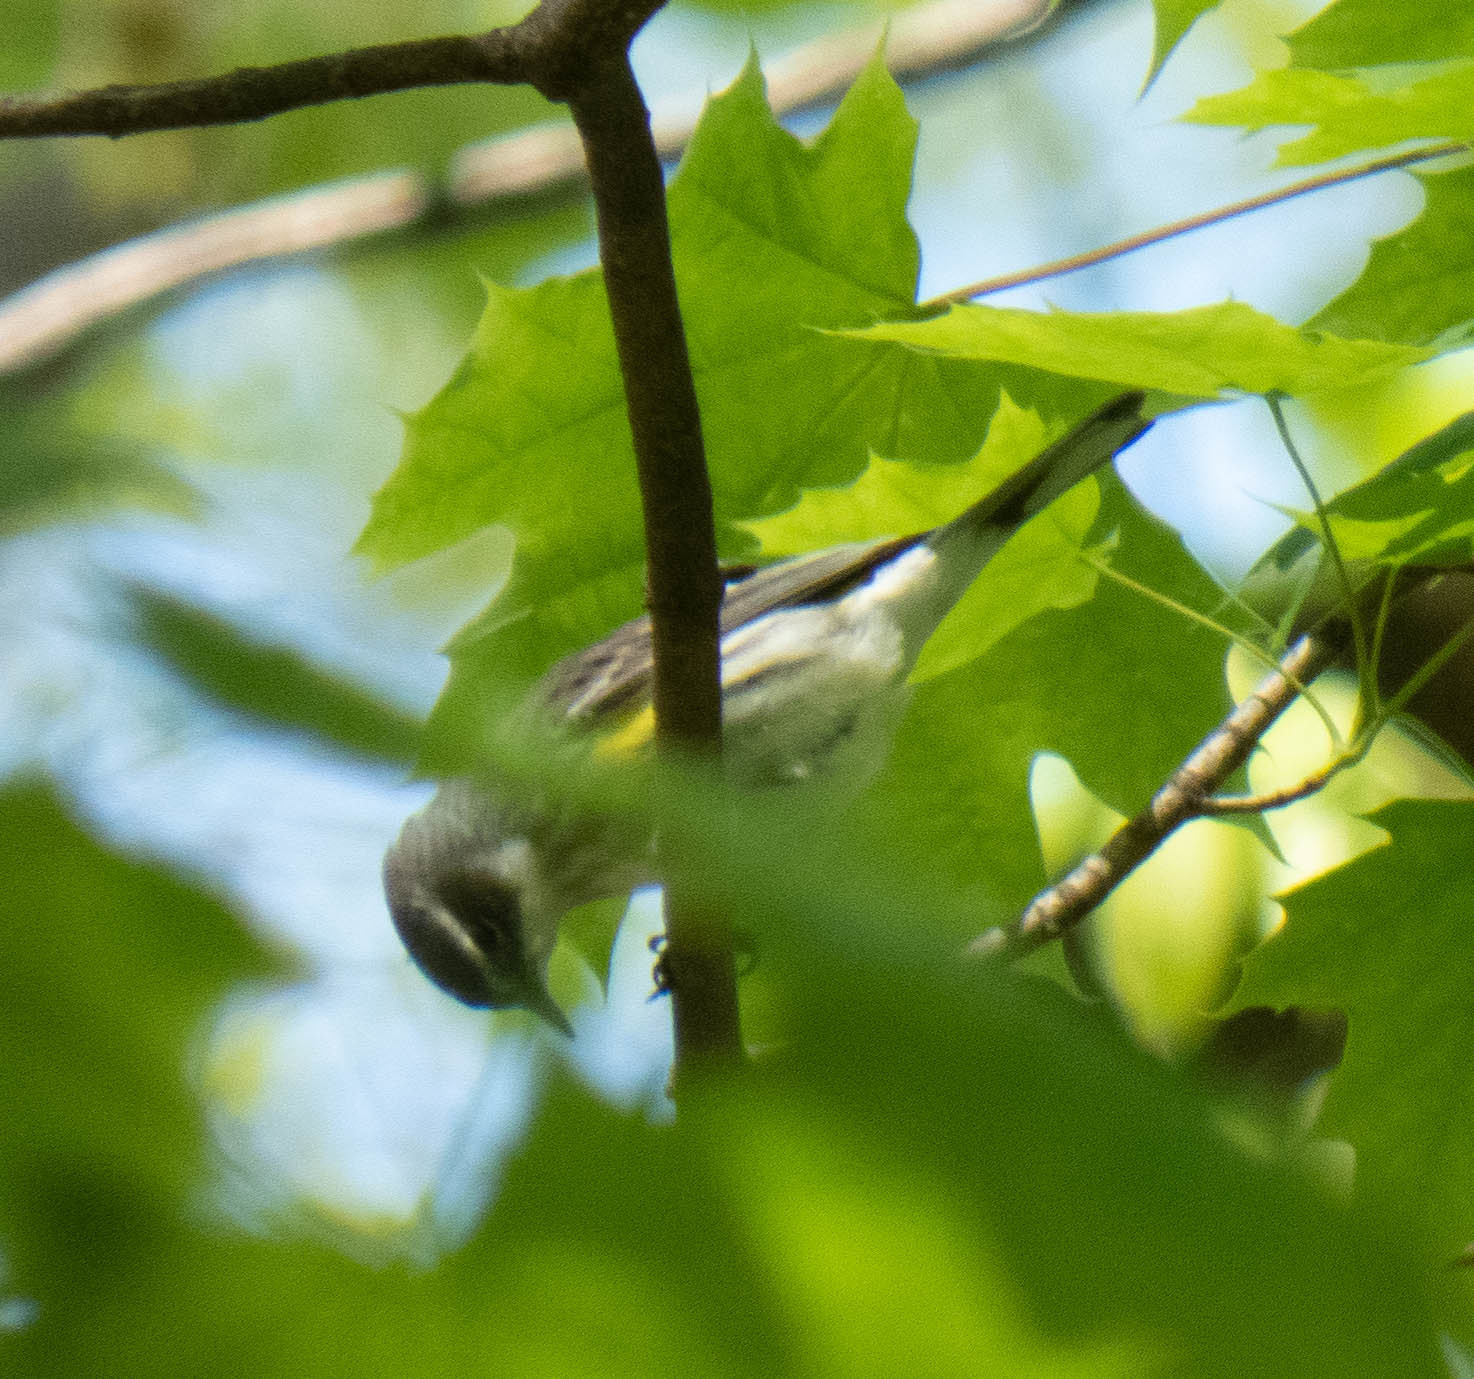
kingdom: Animalia
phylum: Chordata
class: Aves
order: Passeriformes
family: Parulidae
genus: Setophaga
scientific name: Setophaga coronata
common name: Myrtle warbler
